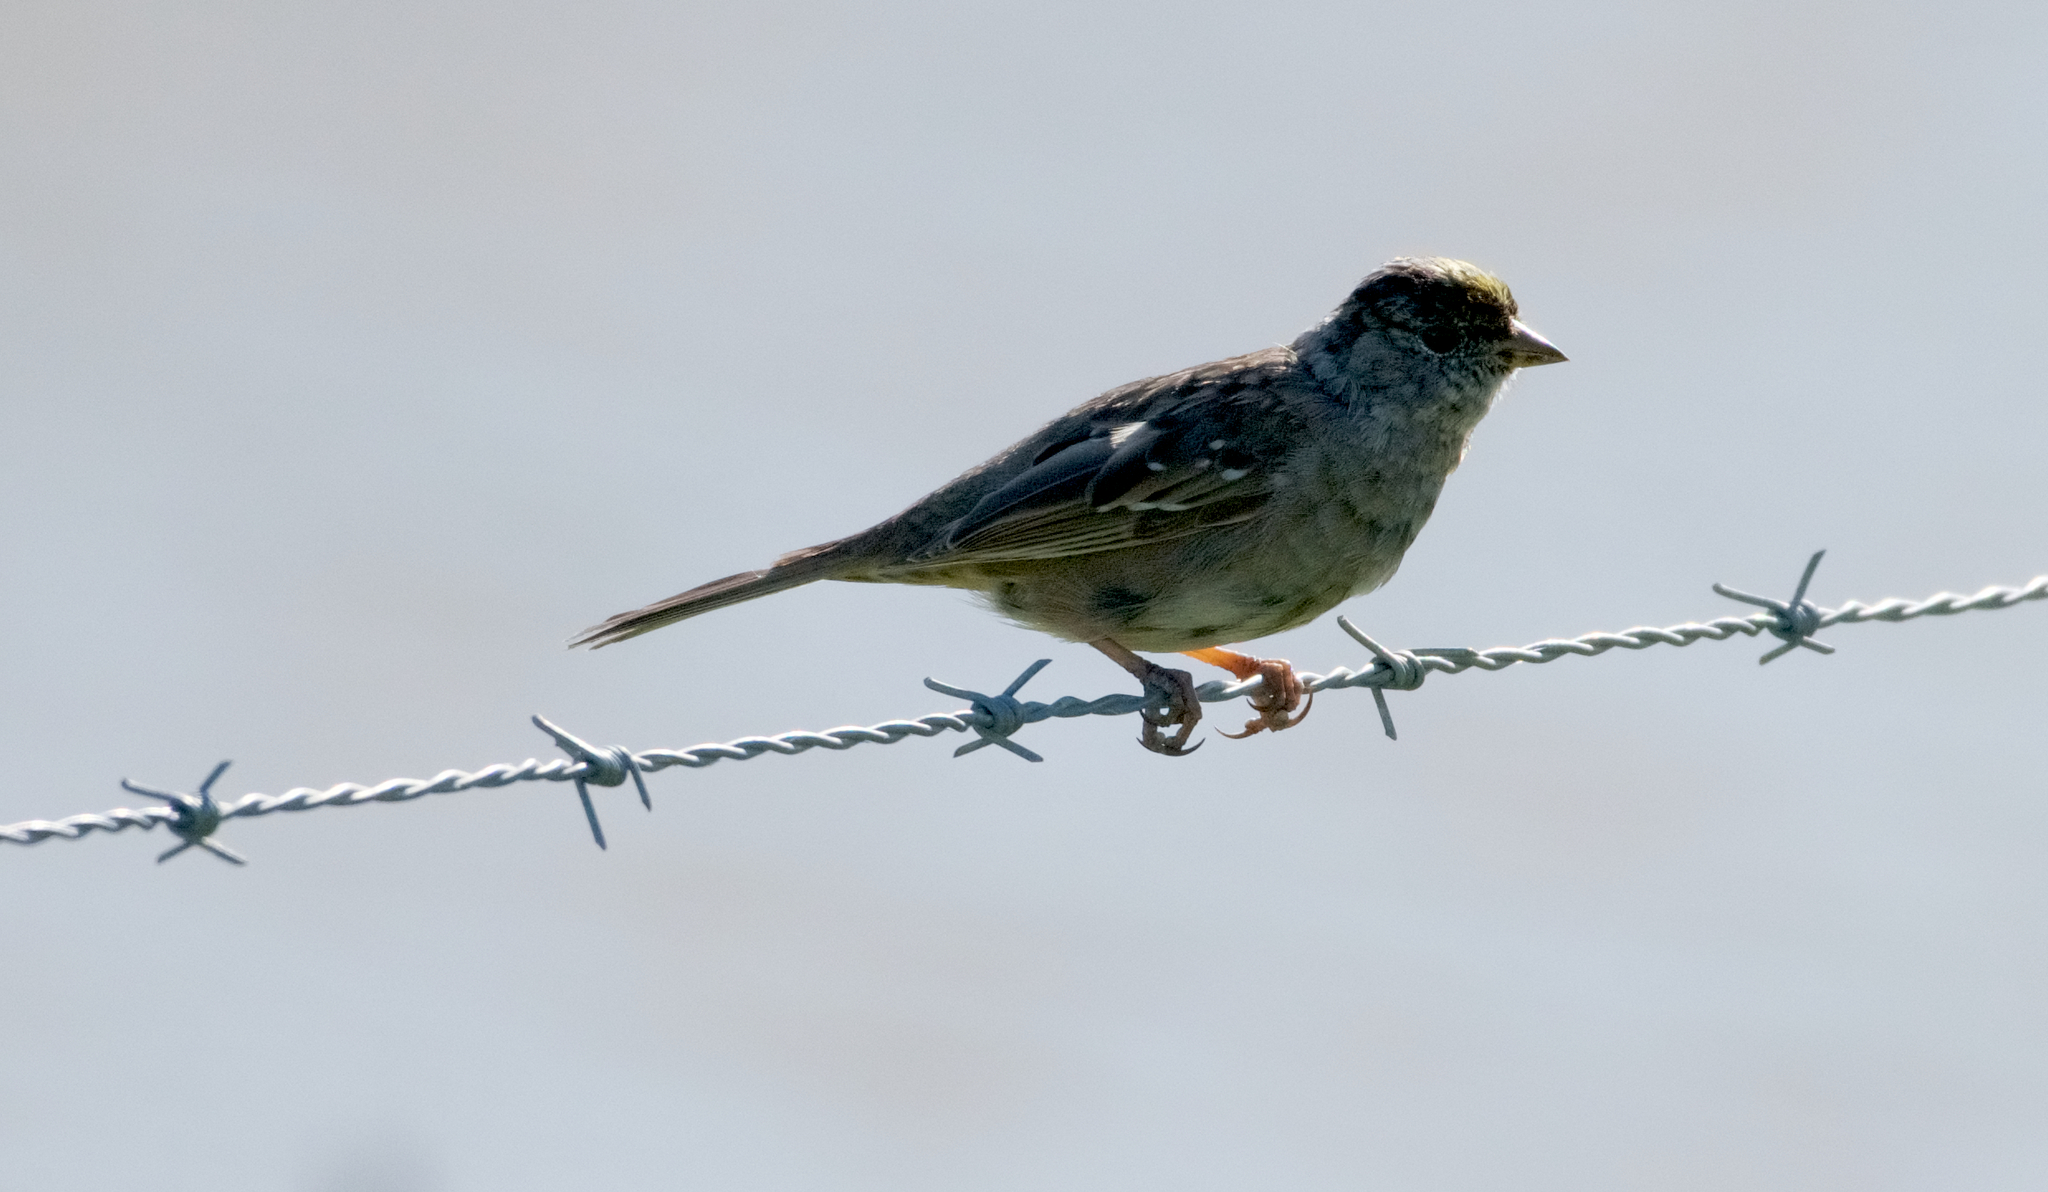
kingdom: Animalia
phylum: Chordata
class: Aves
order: Passeriformes
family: Passerellidae
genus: Zonotrichia
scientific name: Zonotrichia atricapilla
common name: Golden-crowned sparrow
